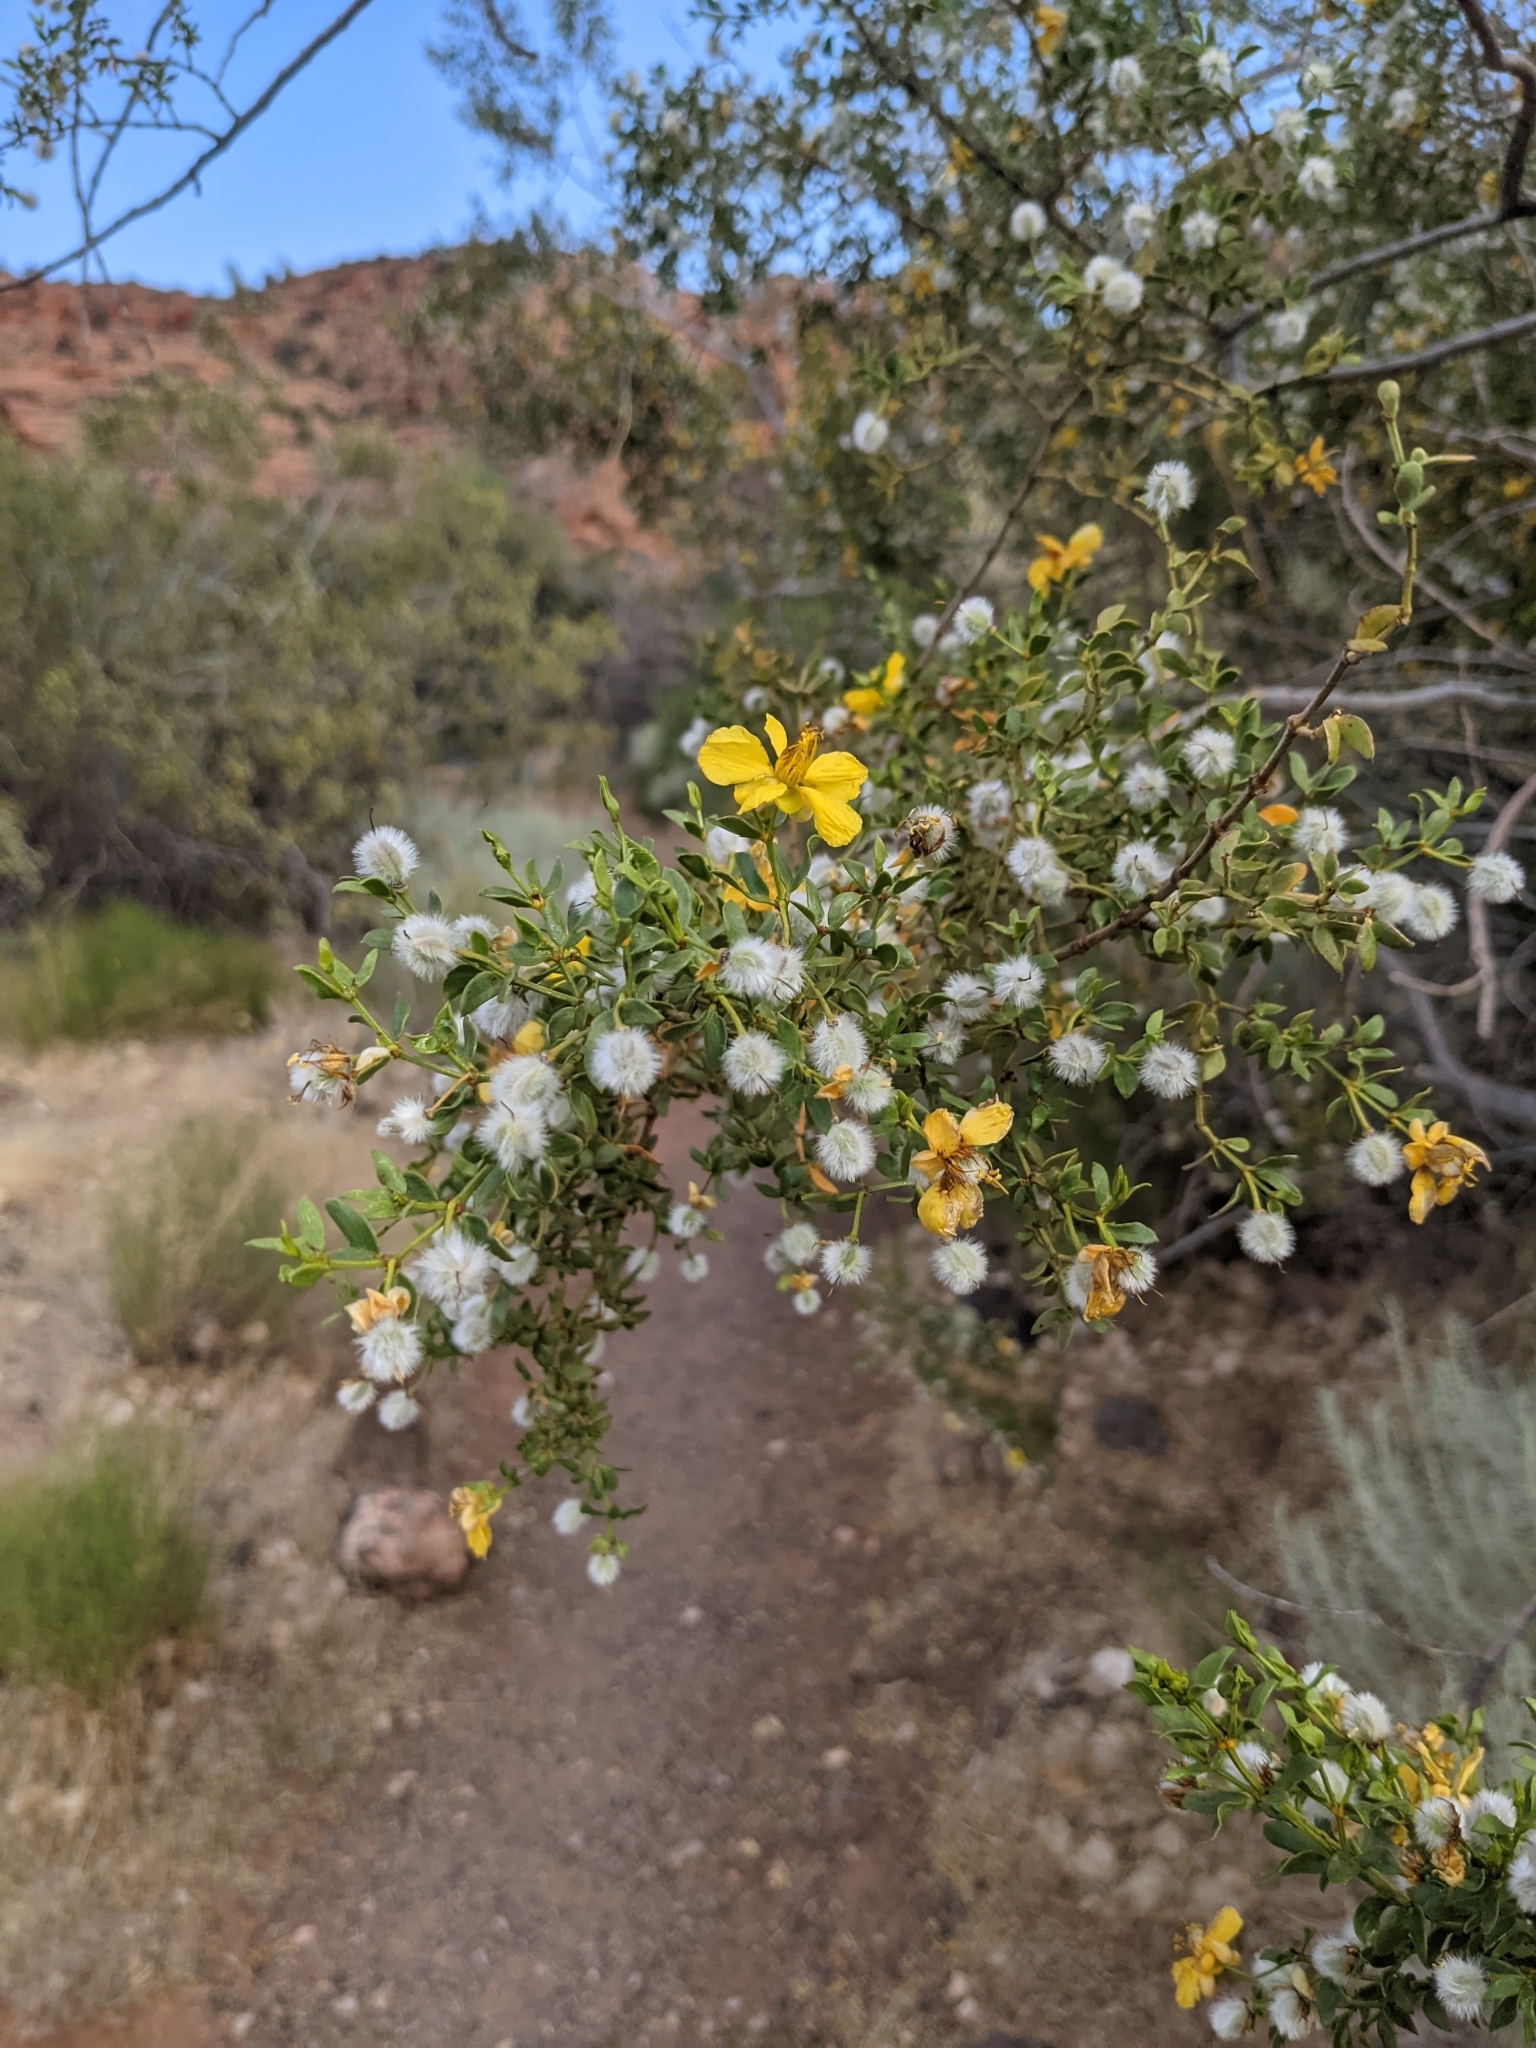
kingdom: Plantae
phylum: Tracheophyta
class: Magnoliopsida
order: Zygophyllales
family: Zygophyllaceae
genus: Larrea
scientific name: Larrea tridentata
